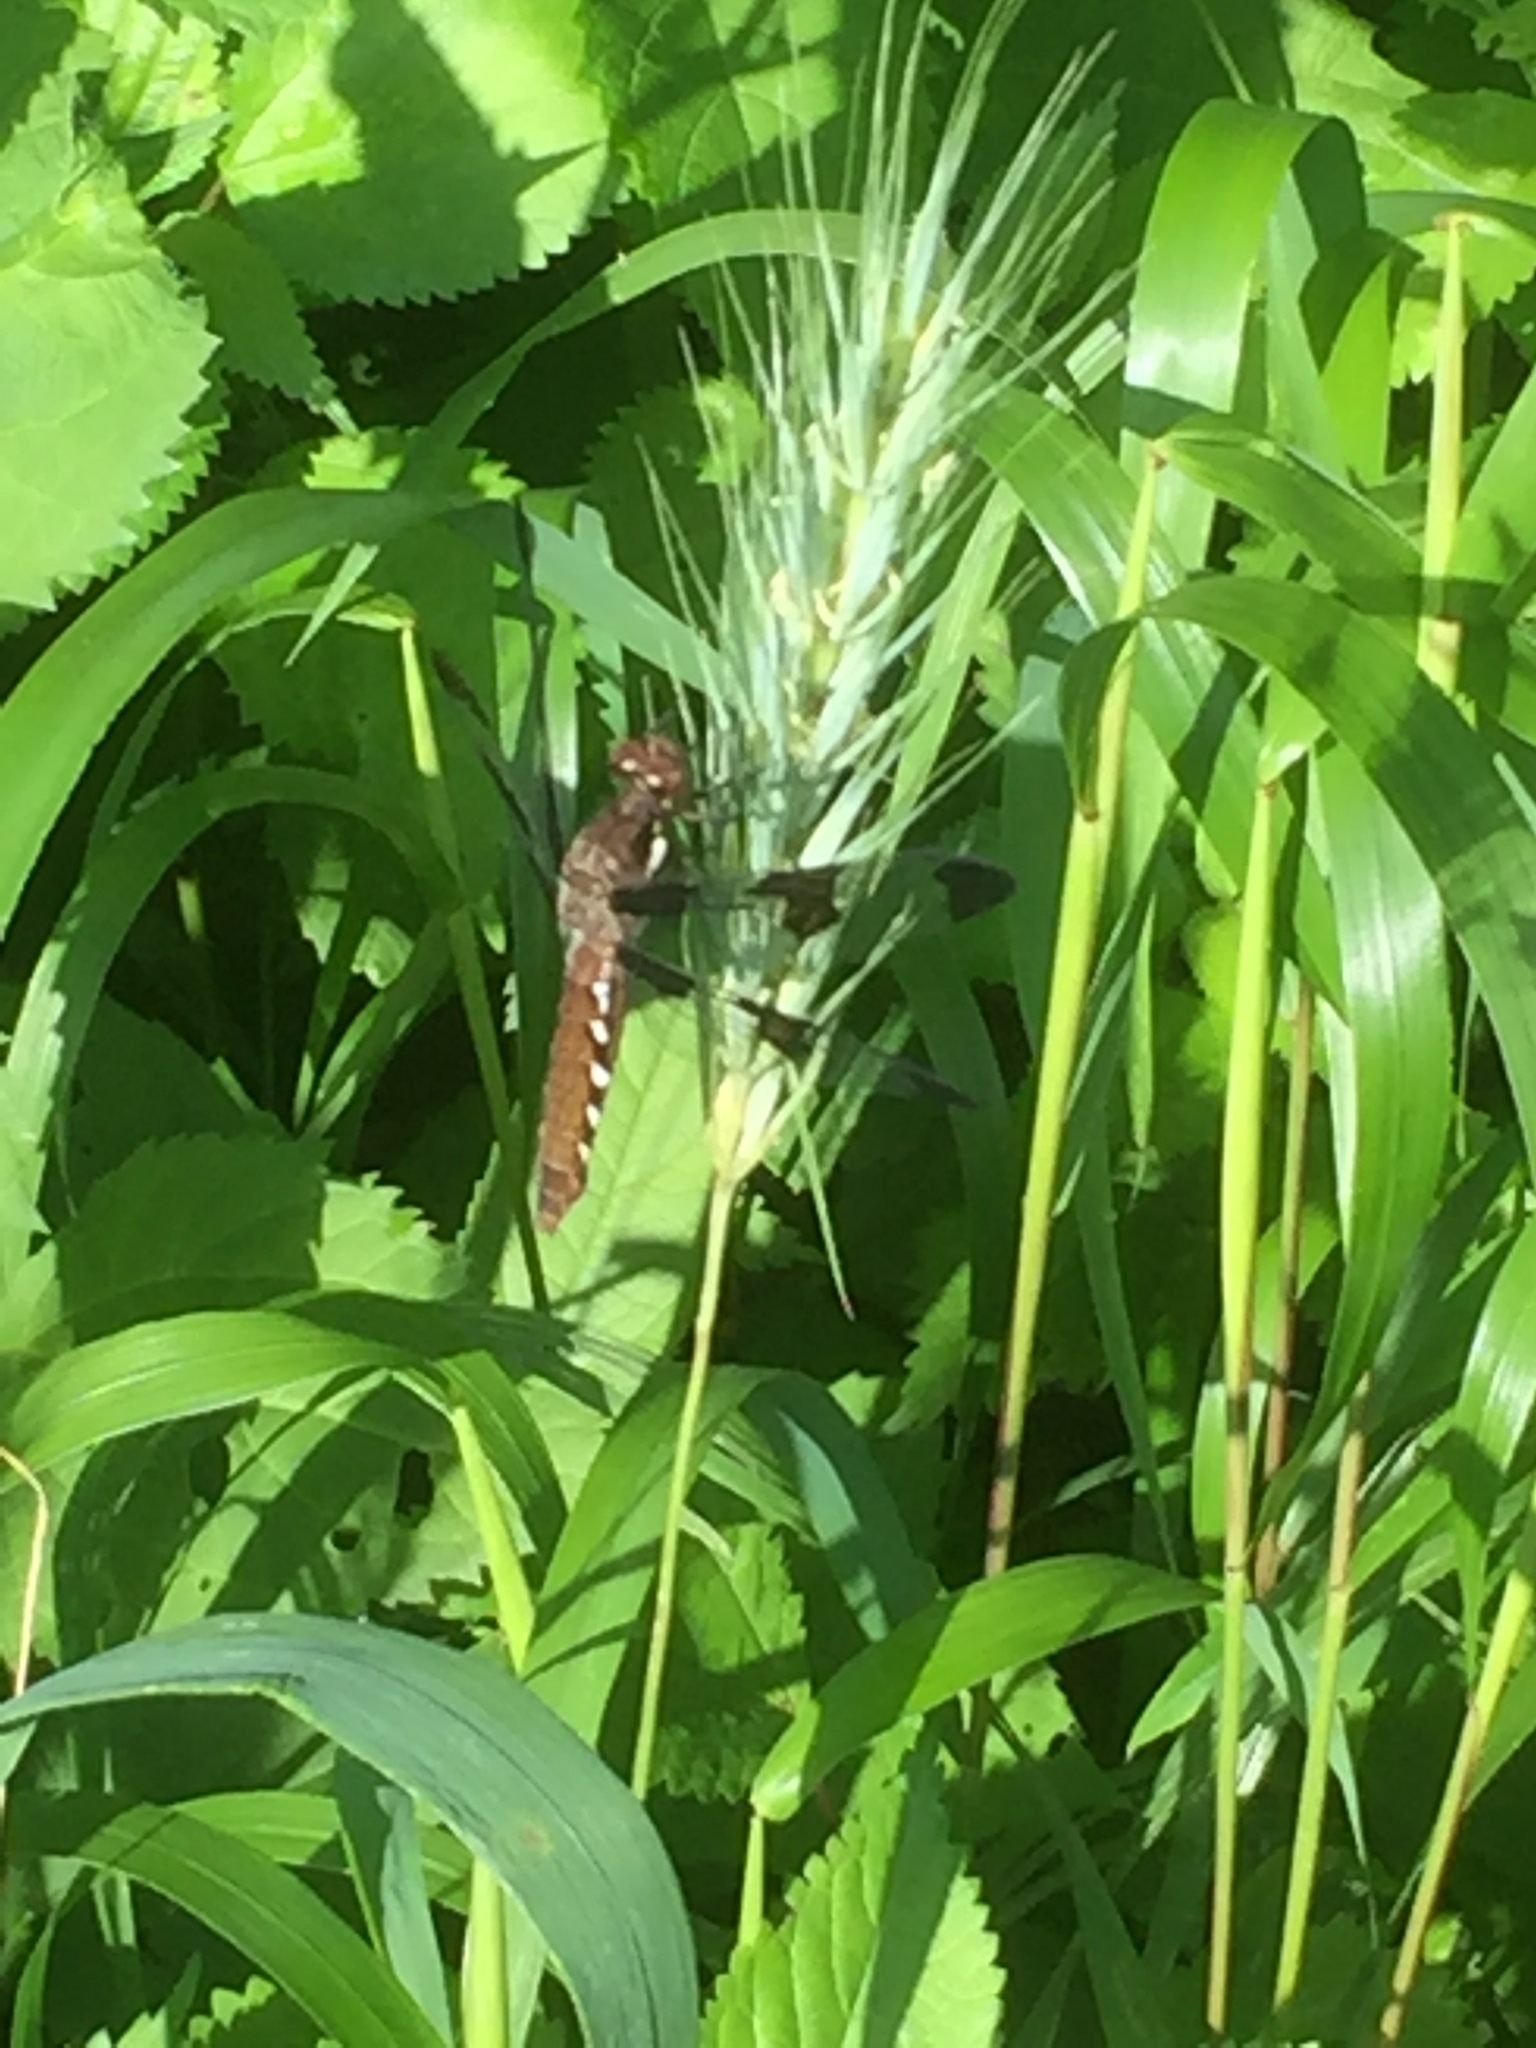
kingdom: Animalia
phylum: Arthropoda
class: Insecta
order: Odonata
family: Libellulidae
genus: Plathemis
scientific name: Plathemis lydia
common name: Common whitetail
